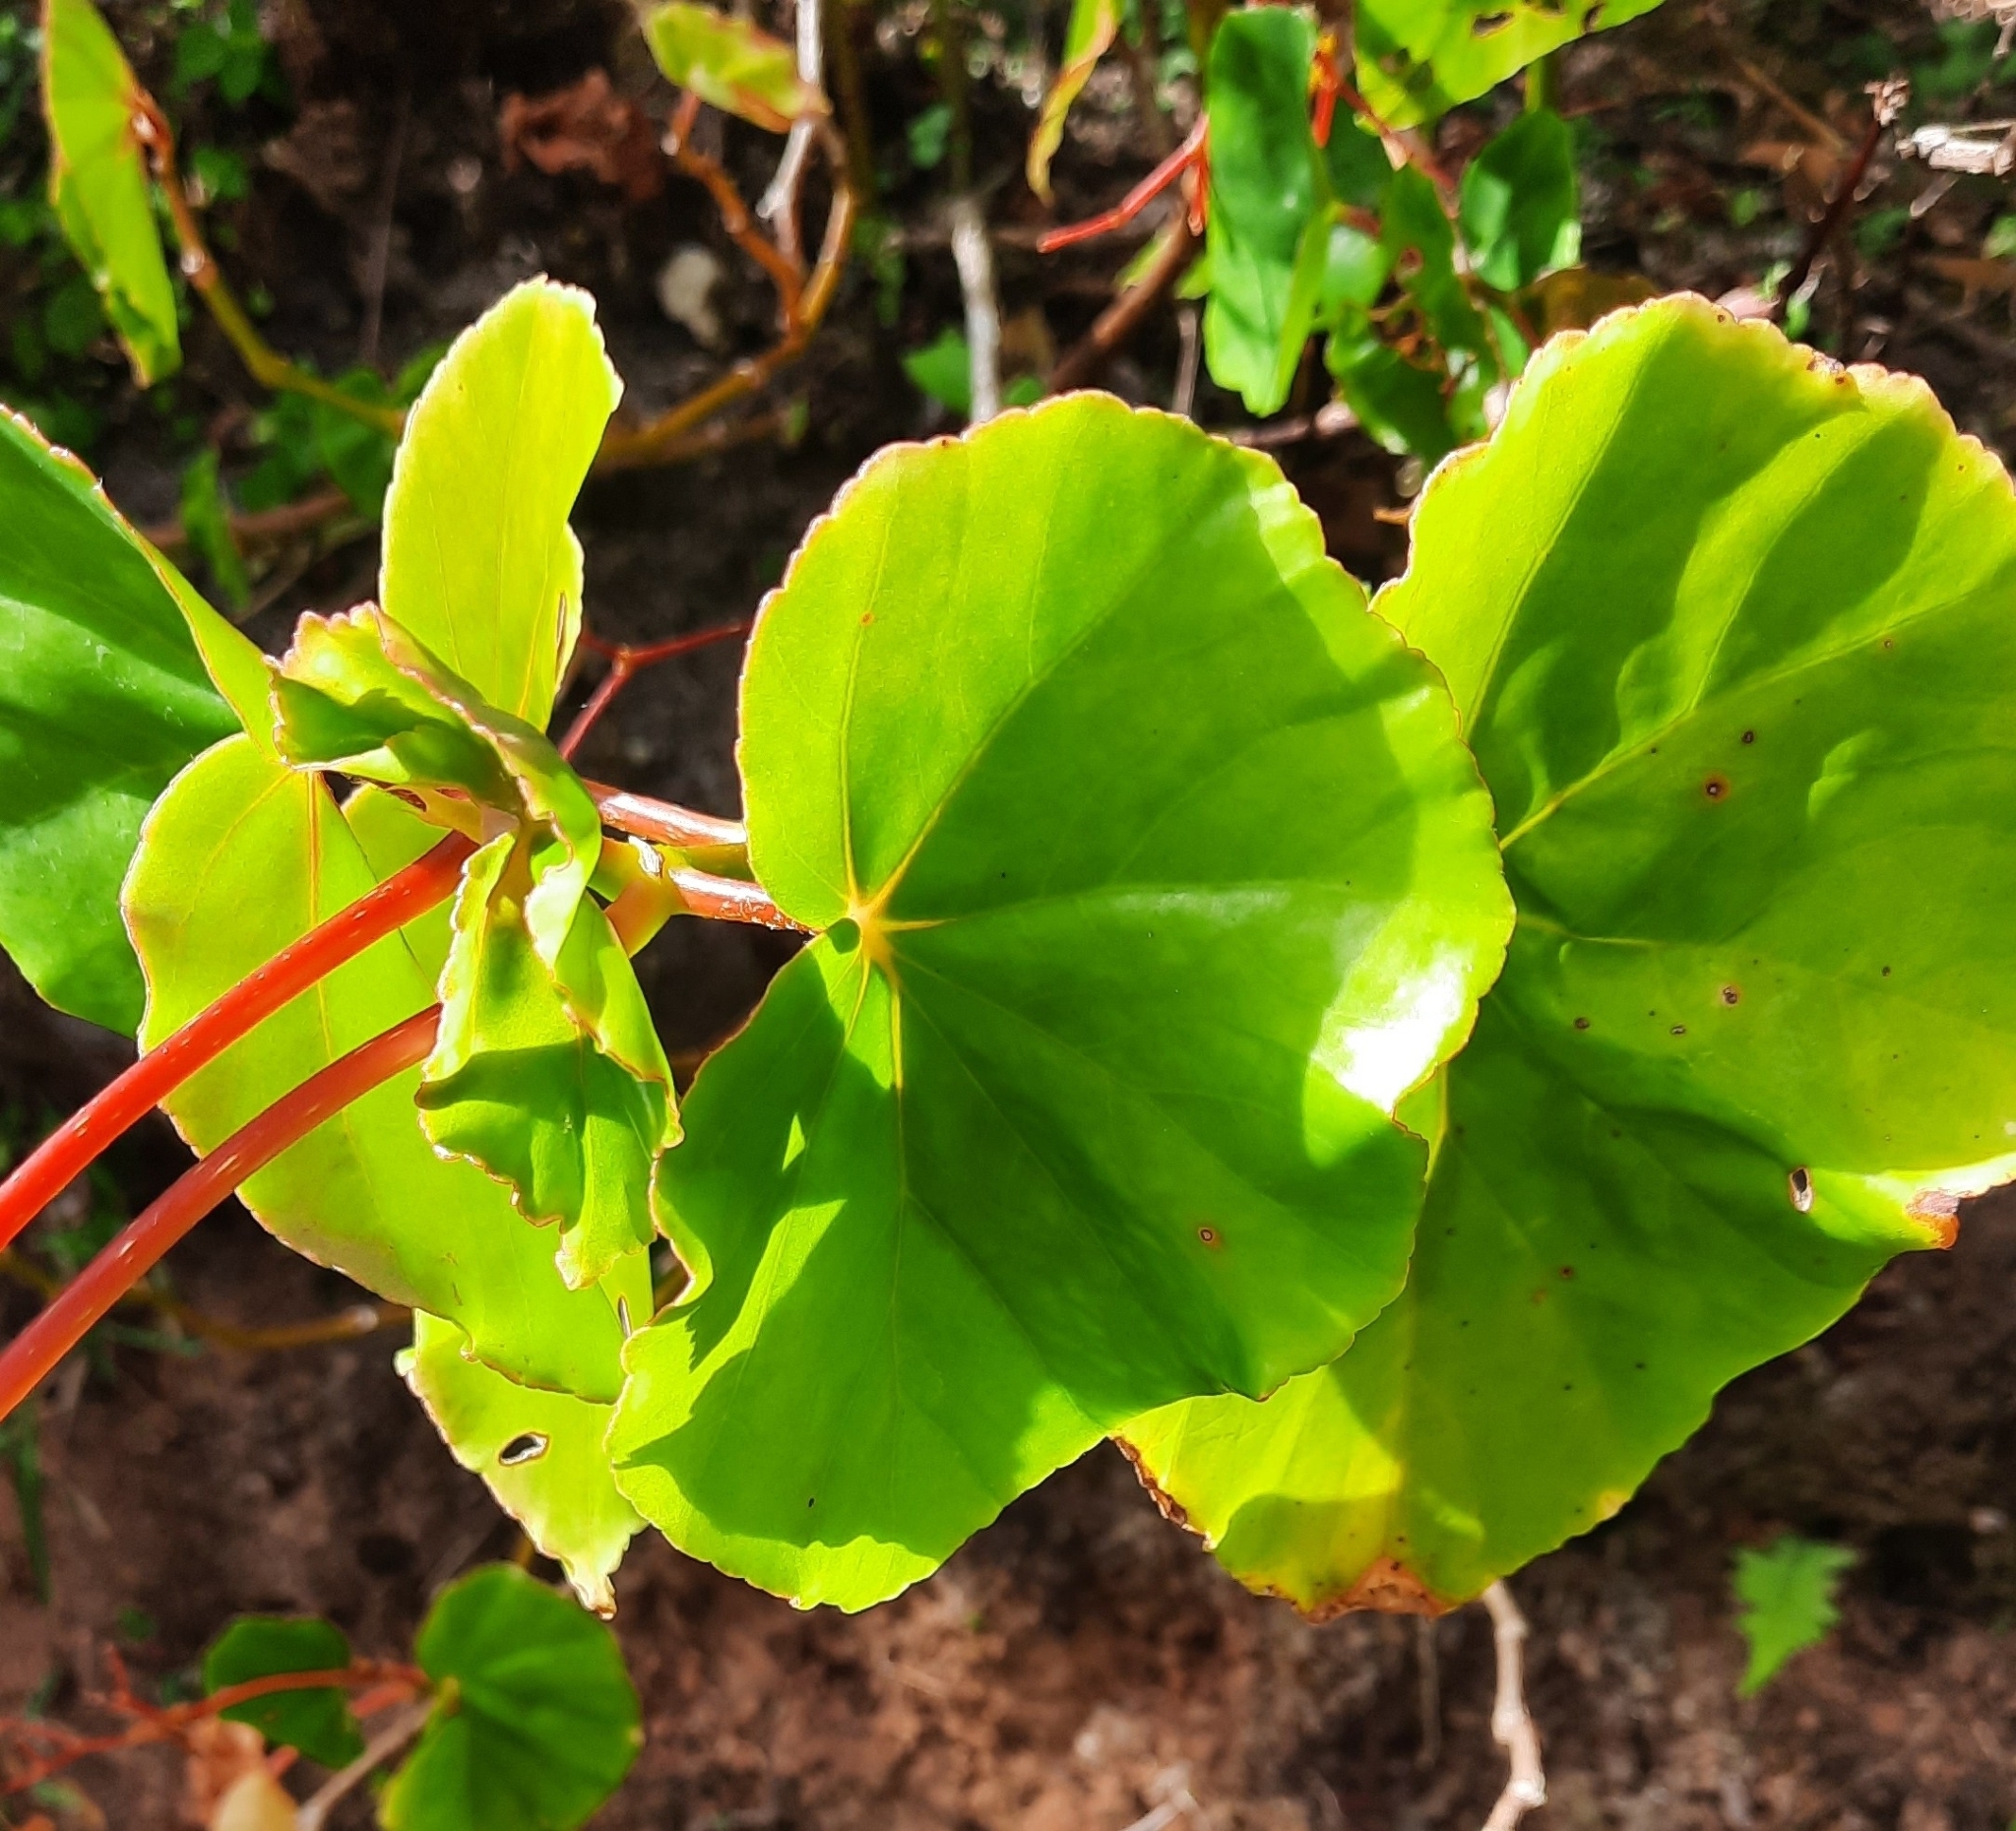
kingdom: Plantae
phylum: Tracheophyta
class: Magnoliopsida
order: Cucurbitales
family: Begoniaceae
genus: Begonia
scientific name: Begonia multinervia
